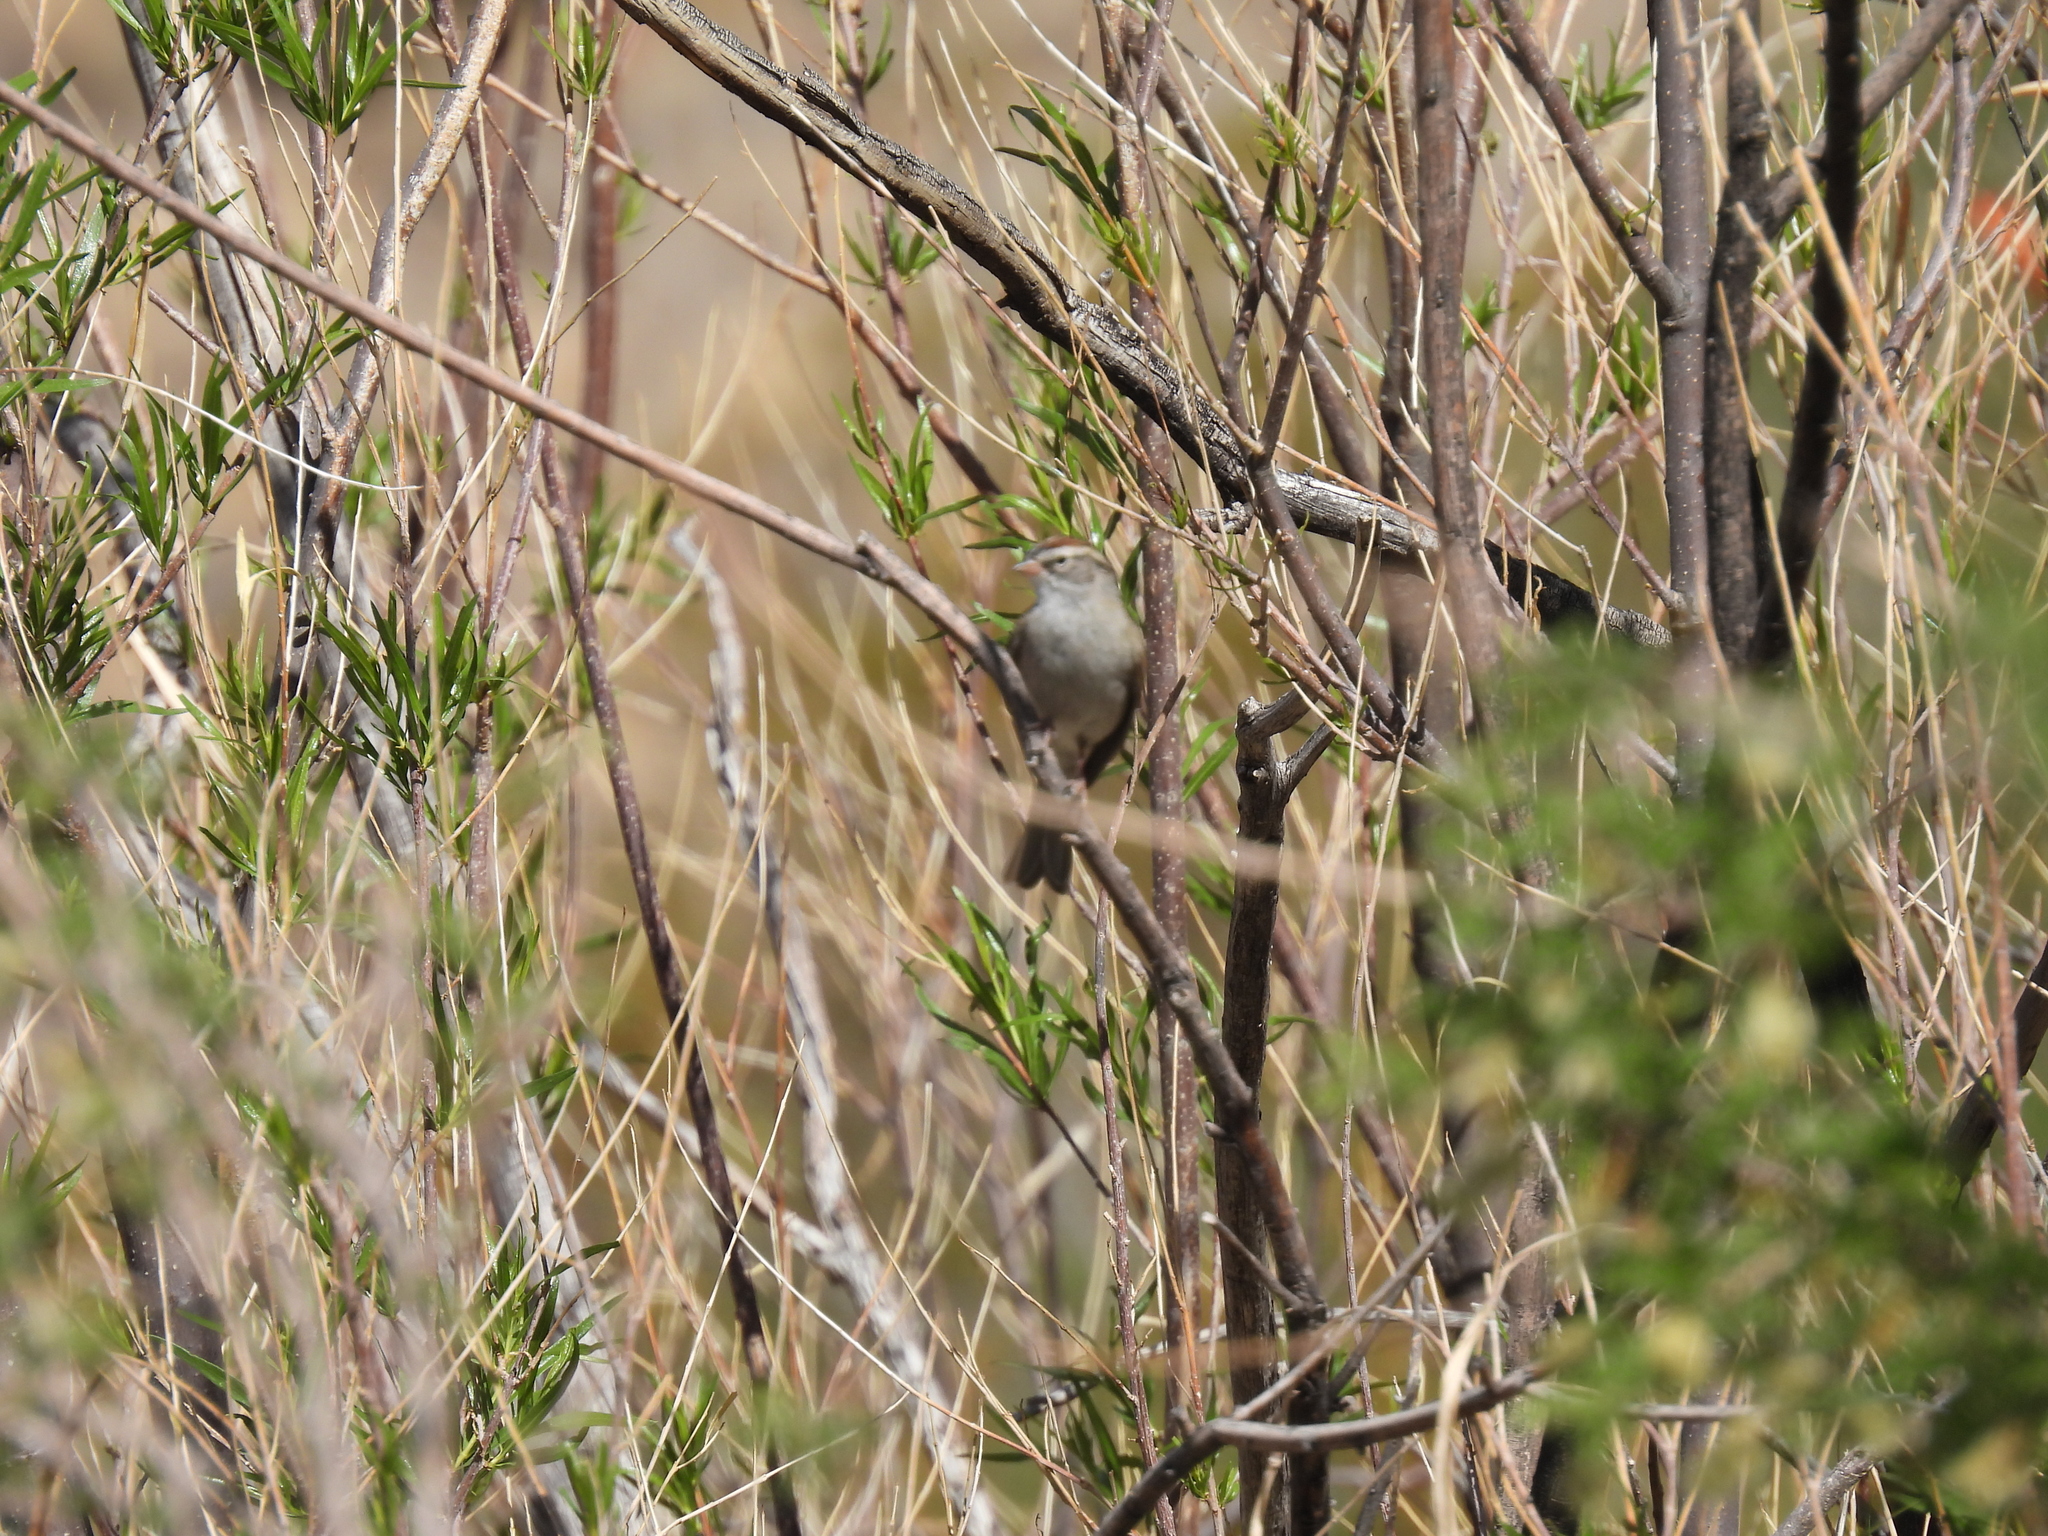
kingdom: Animalia
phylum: Chordata
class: Aves
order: Passeriformes
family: Passerellidae
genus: Spizella
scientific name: Spizella passerina
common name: Chipping sparrow
